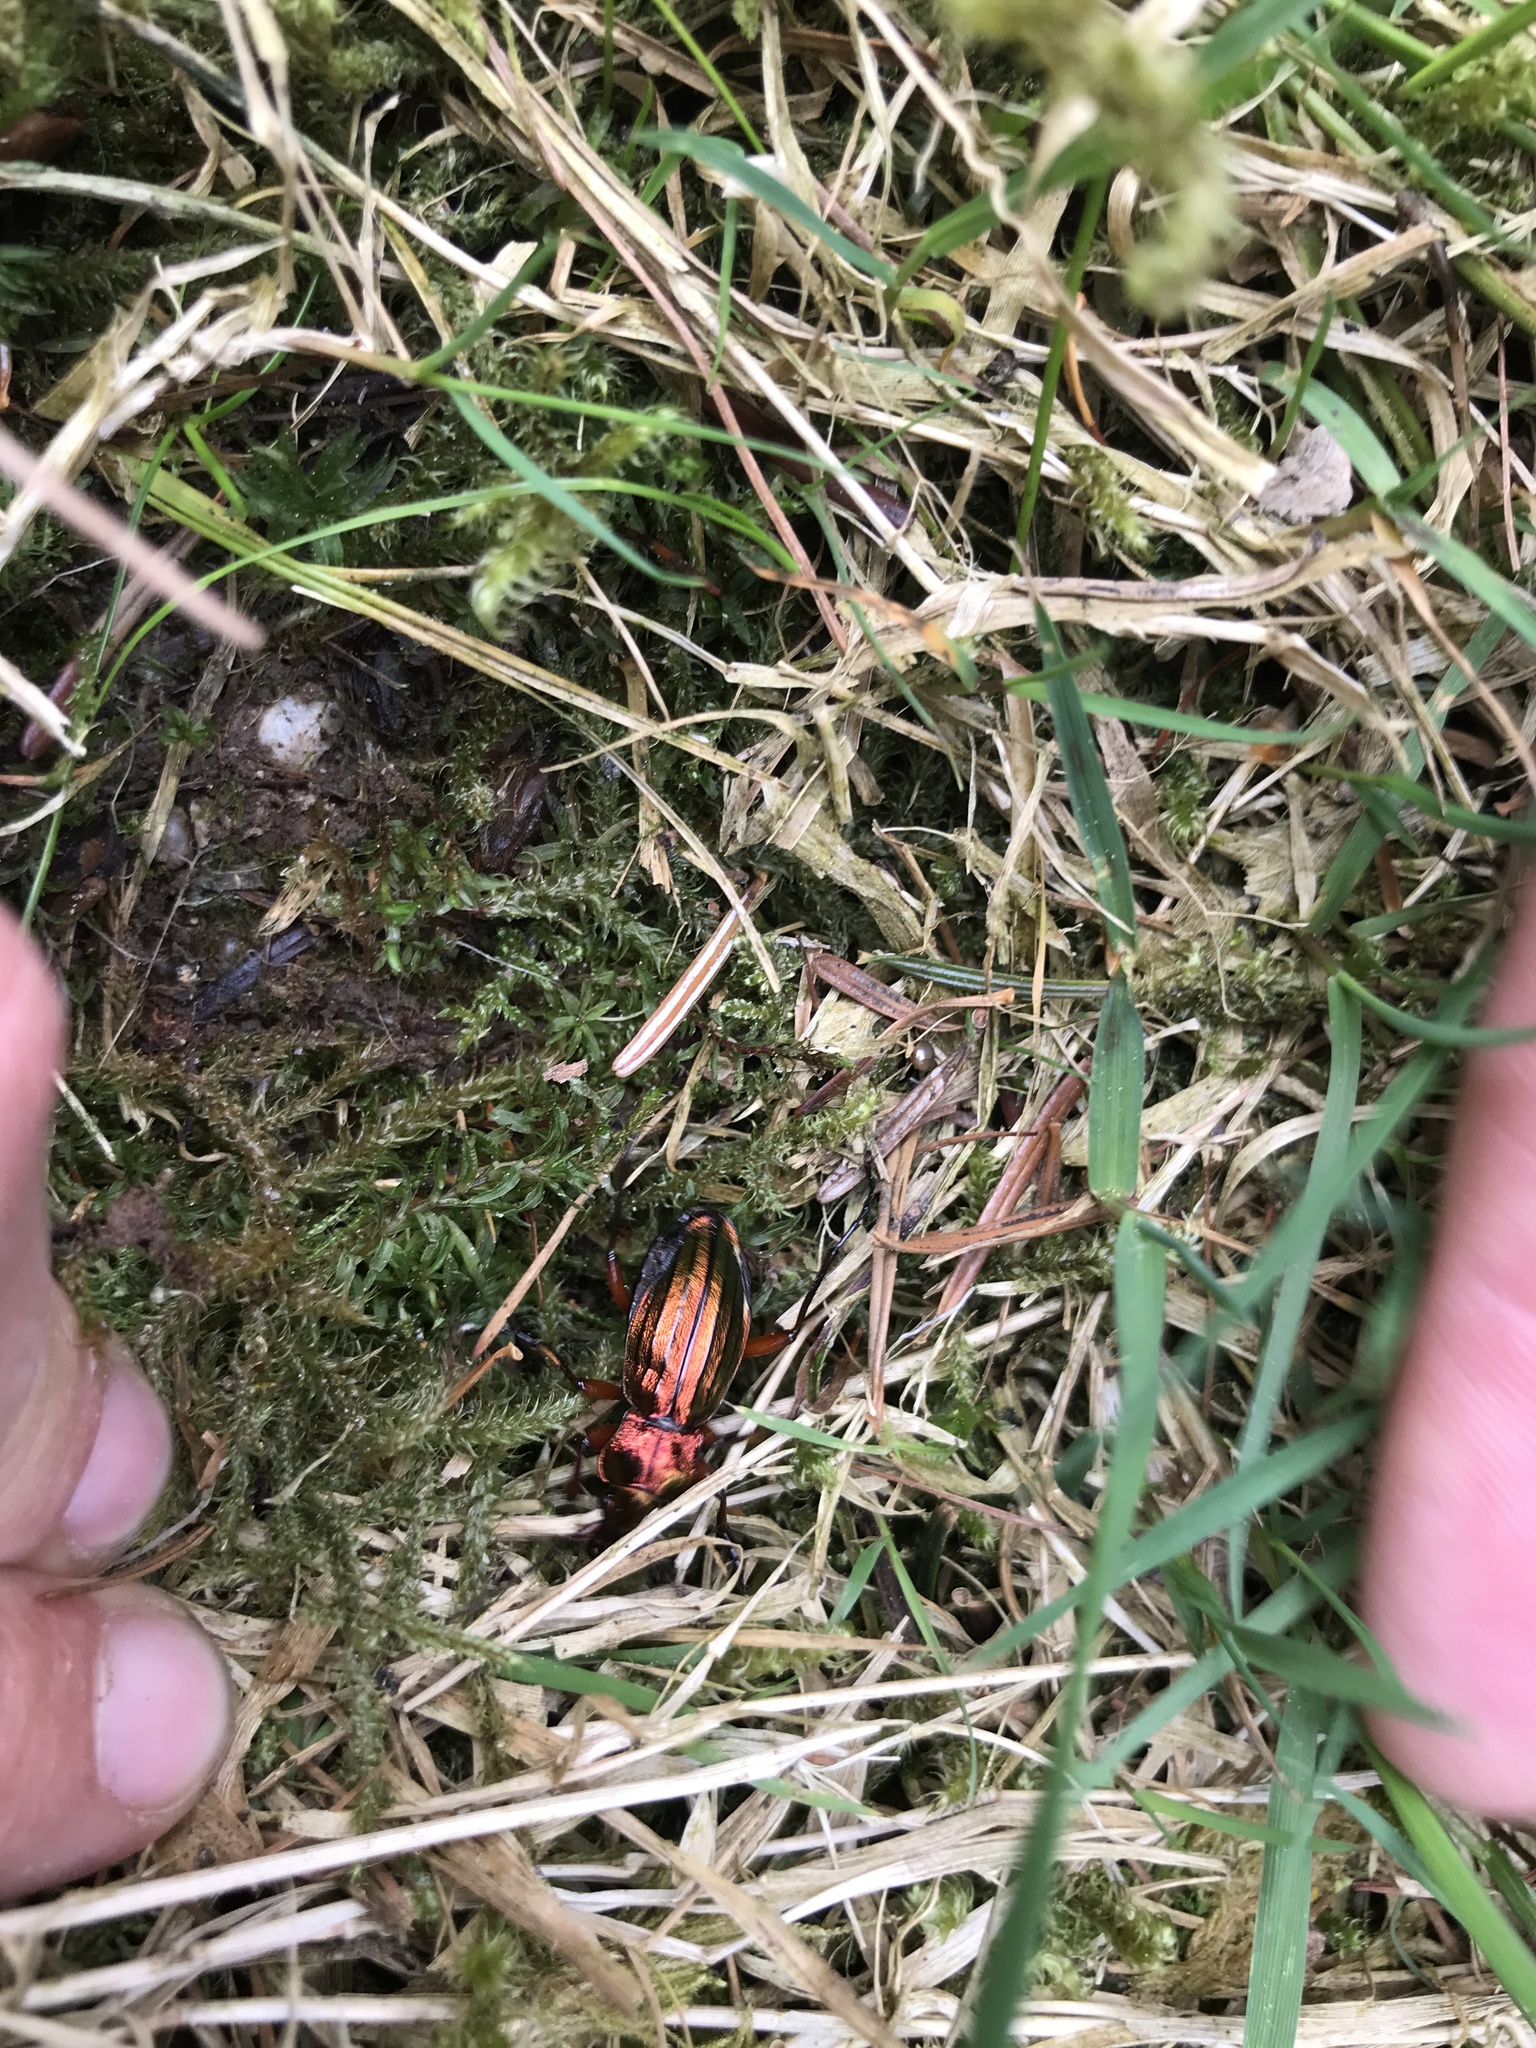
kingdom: Animalia
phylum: Arthropoda
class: Insecta
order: Coleoptera
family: Carabidae
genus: Carabus
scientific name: Carabus auronitens
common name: Carabus auronitens
